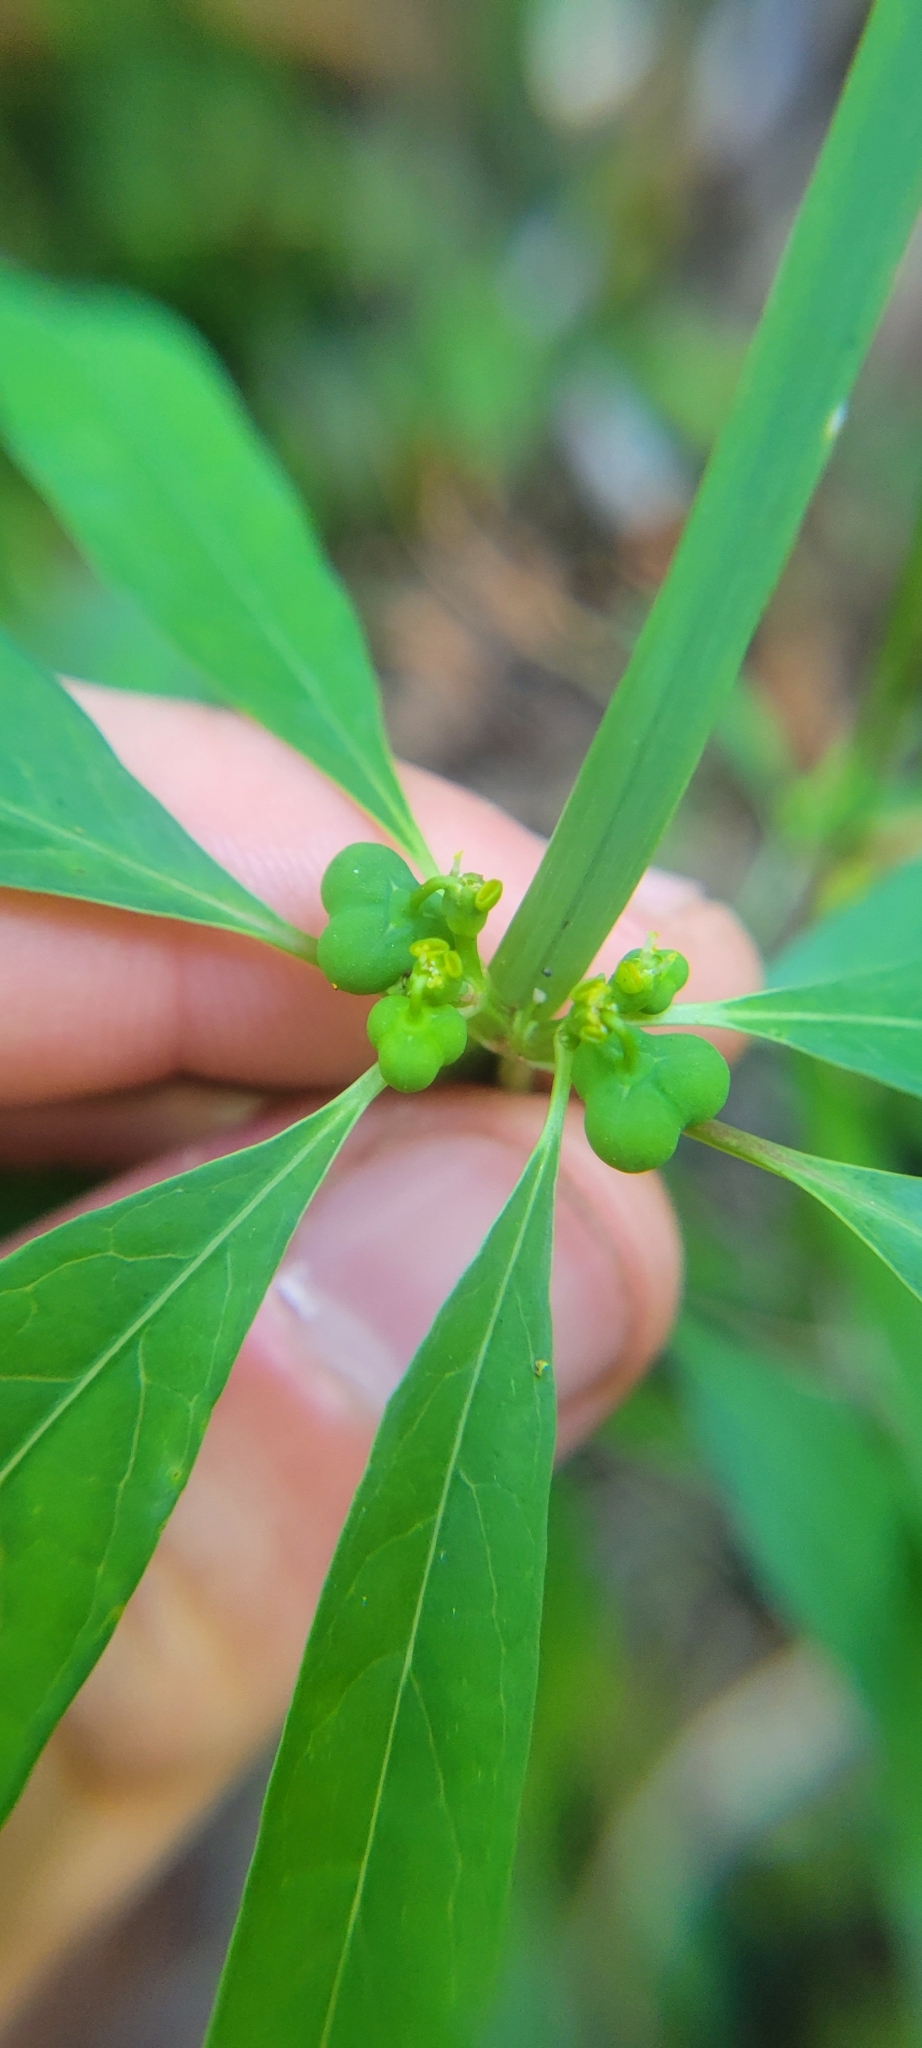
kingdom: Plantae
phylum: Tracheophyta
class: Magnoliopsida
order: Malpighiales
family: Euphorbiaceae
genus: Euphorbia
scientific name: Euphorbia heterophylla
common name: Mexican fireplant
